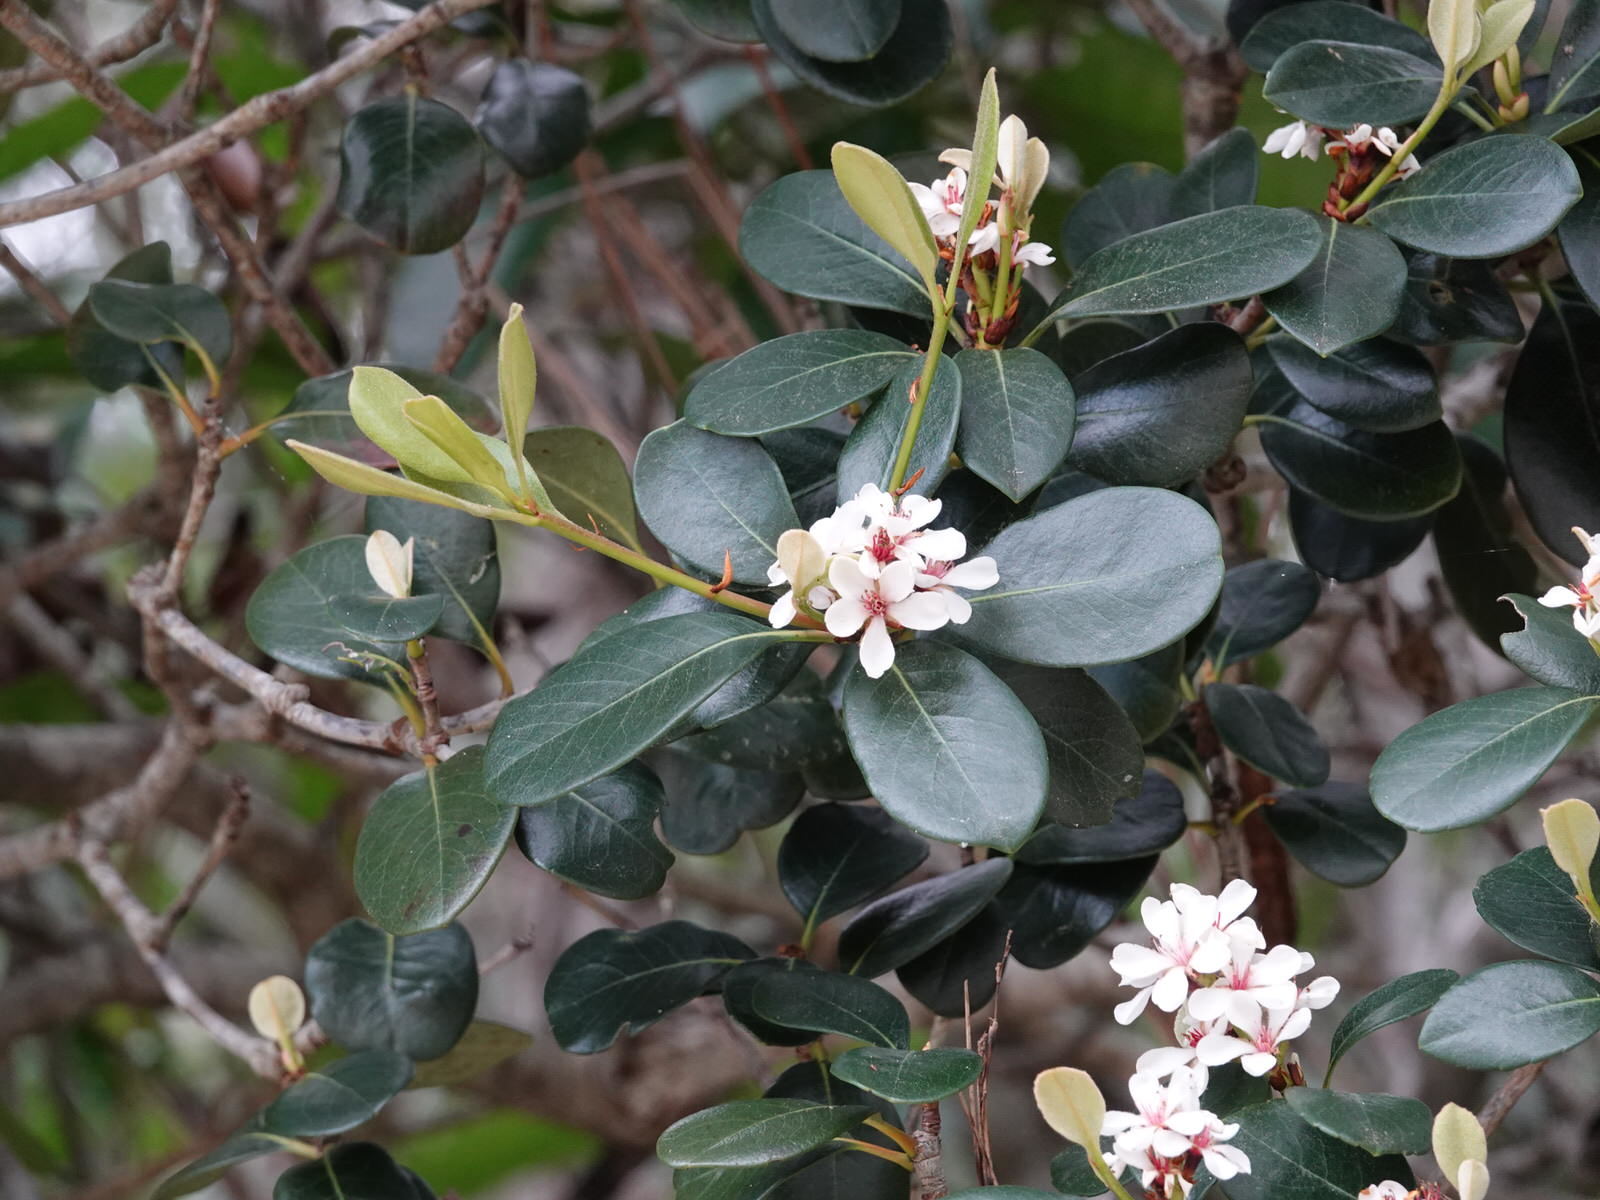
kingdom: Plantae
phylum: Tracheophyta
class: Magnoliopsida
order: Rosales
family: Rosaceae
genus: Rhaphiolepis
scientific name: Rhaphiolepis indica
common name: India-hawthorn
